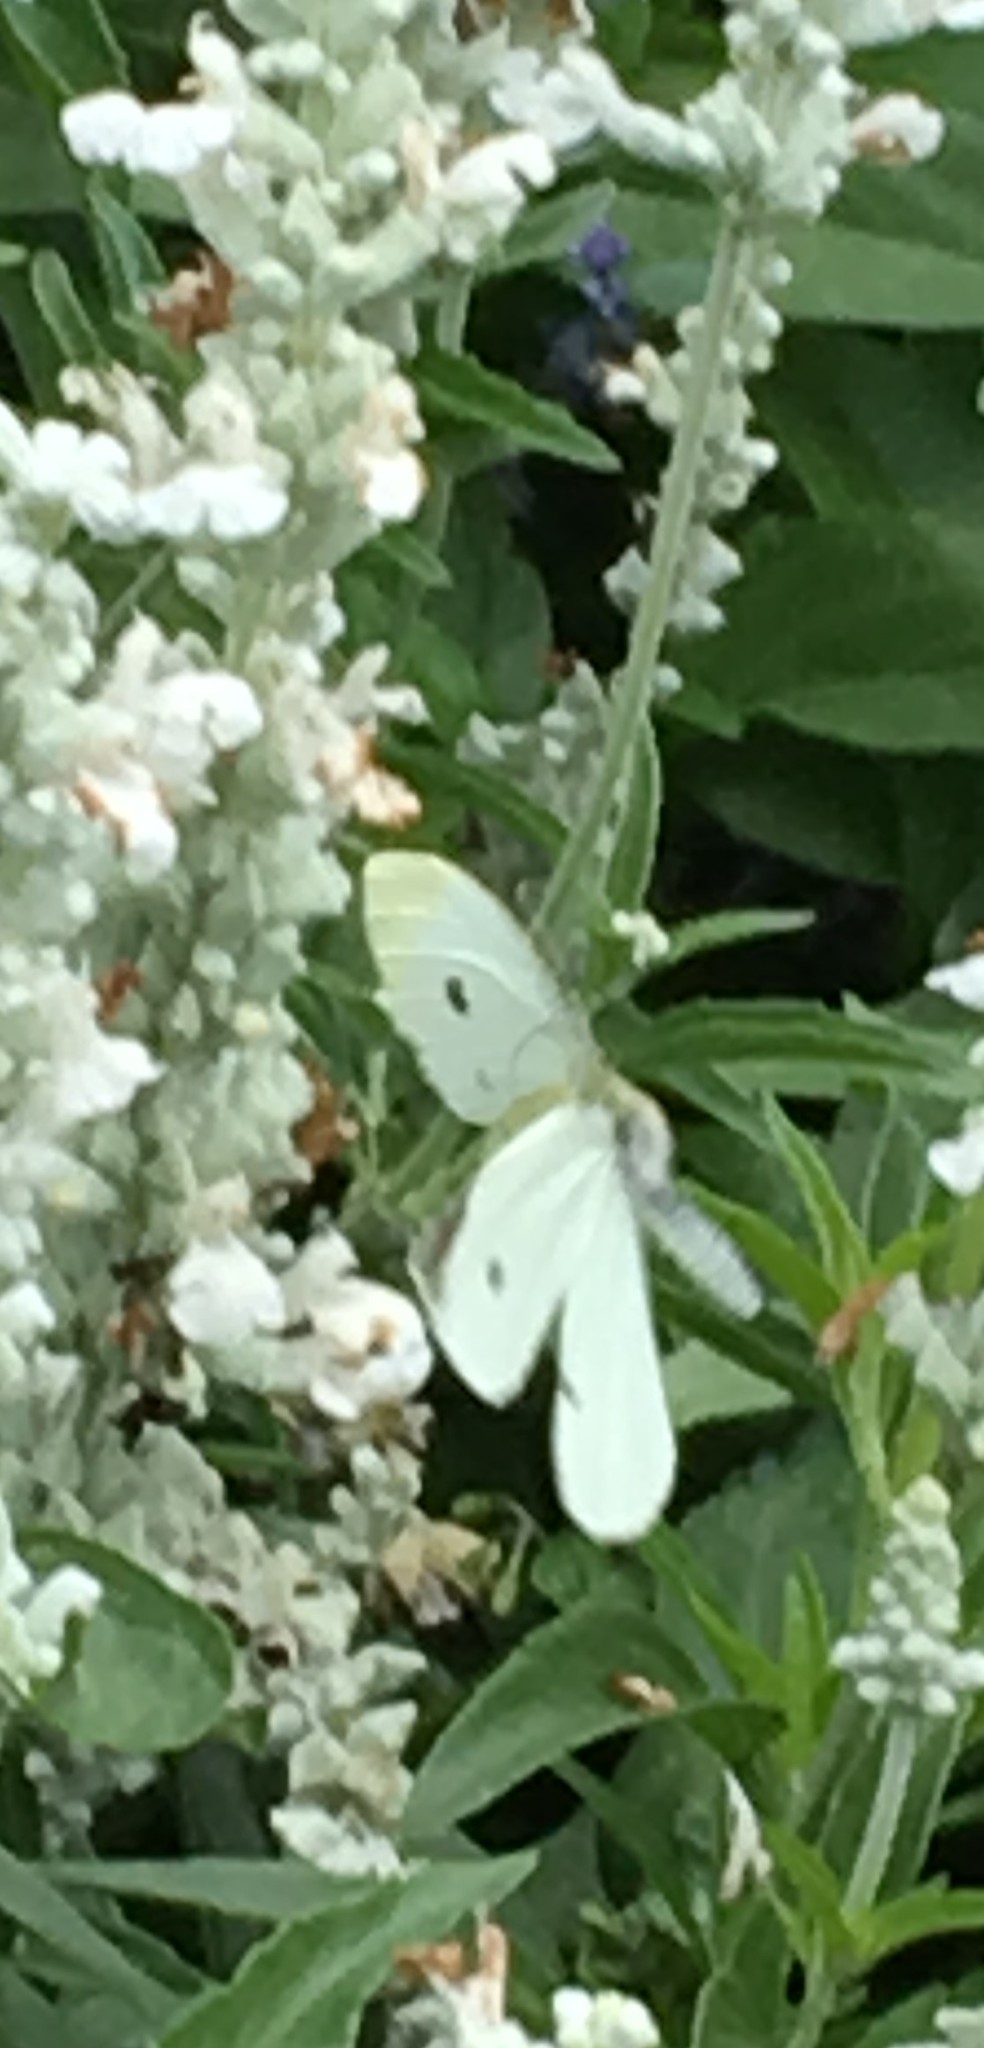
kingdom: Animalia
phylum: Arthropoda
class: Insecta
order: Lepidoptera
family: Pieridae
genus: Pieris
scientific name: Pieris rapae
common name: Small white
